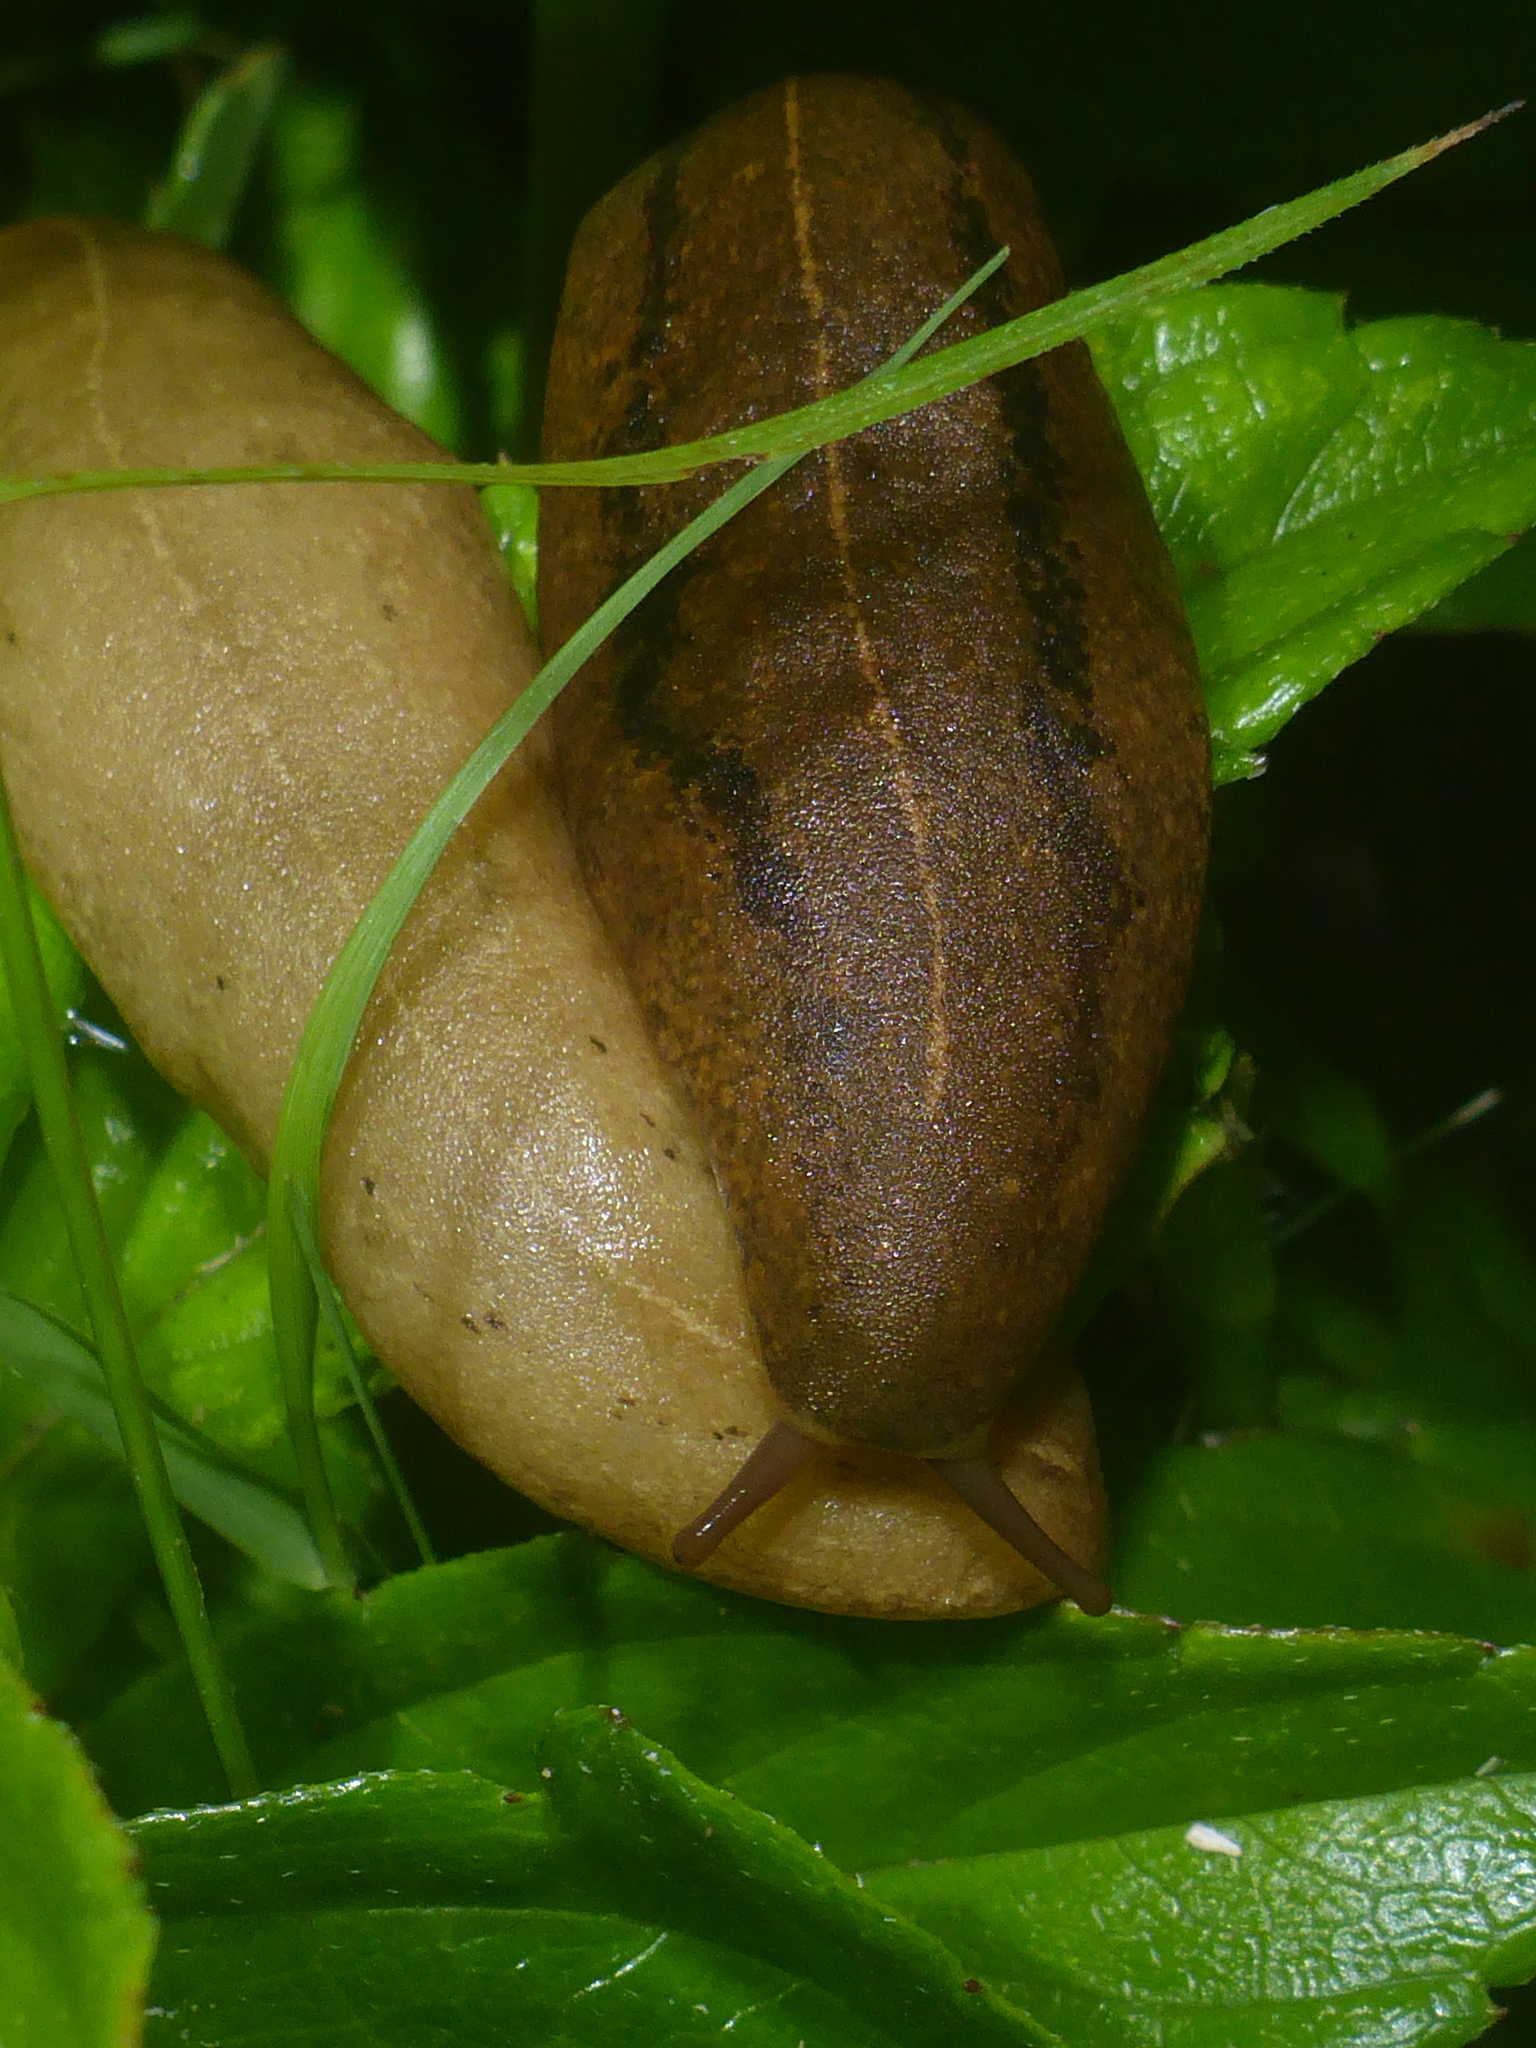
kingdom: Animalia
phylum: Mollusca
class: Gastropoda
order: Systellommatophora
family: Veronicellidae
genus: Veronicella
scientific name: Veronicella cubensis
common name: Two striped slug
